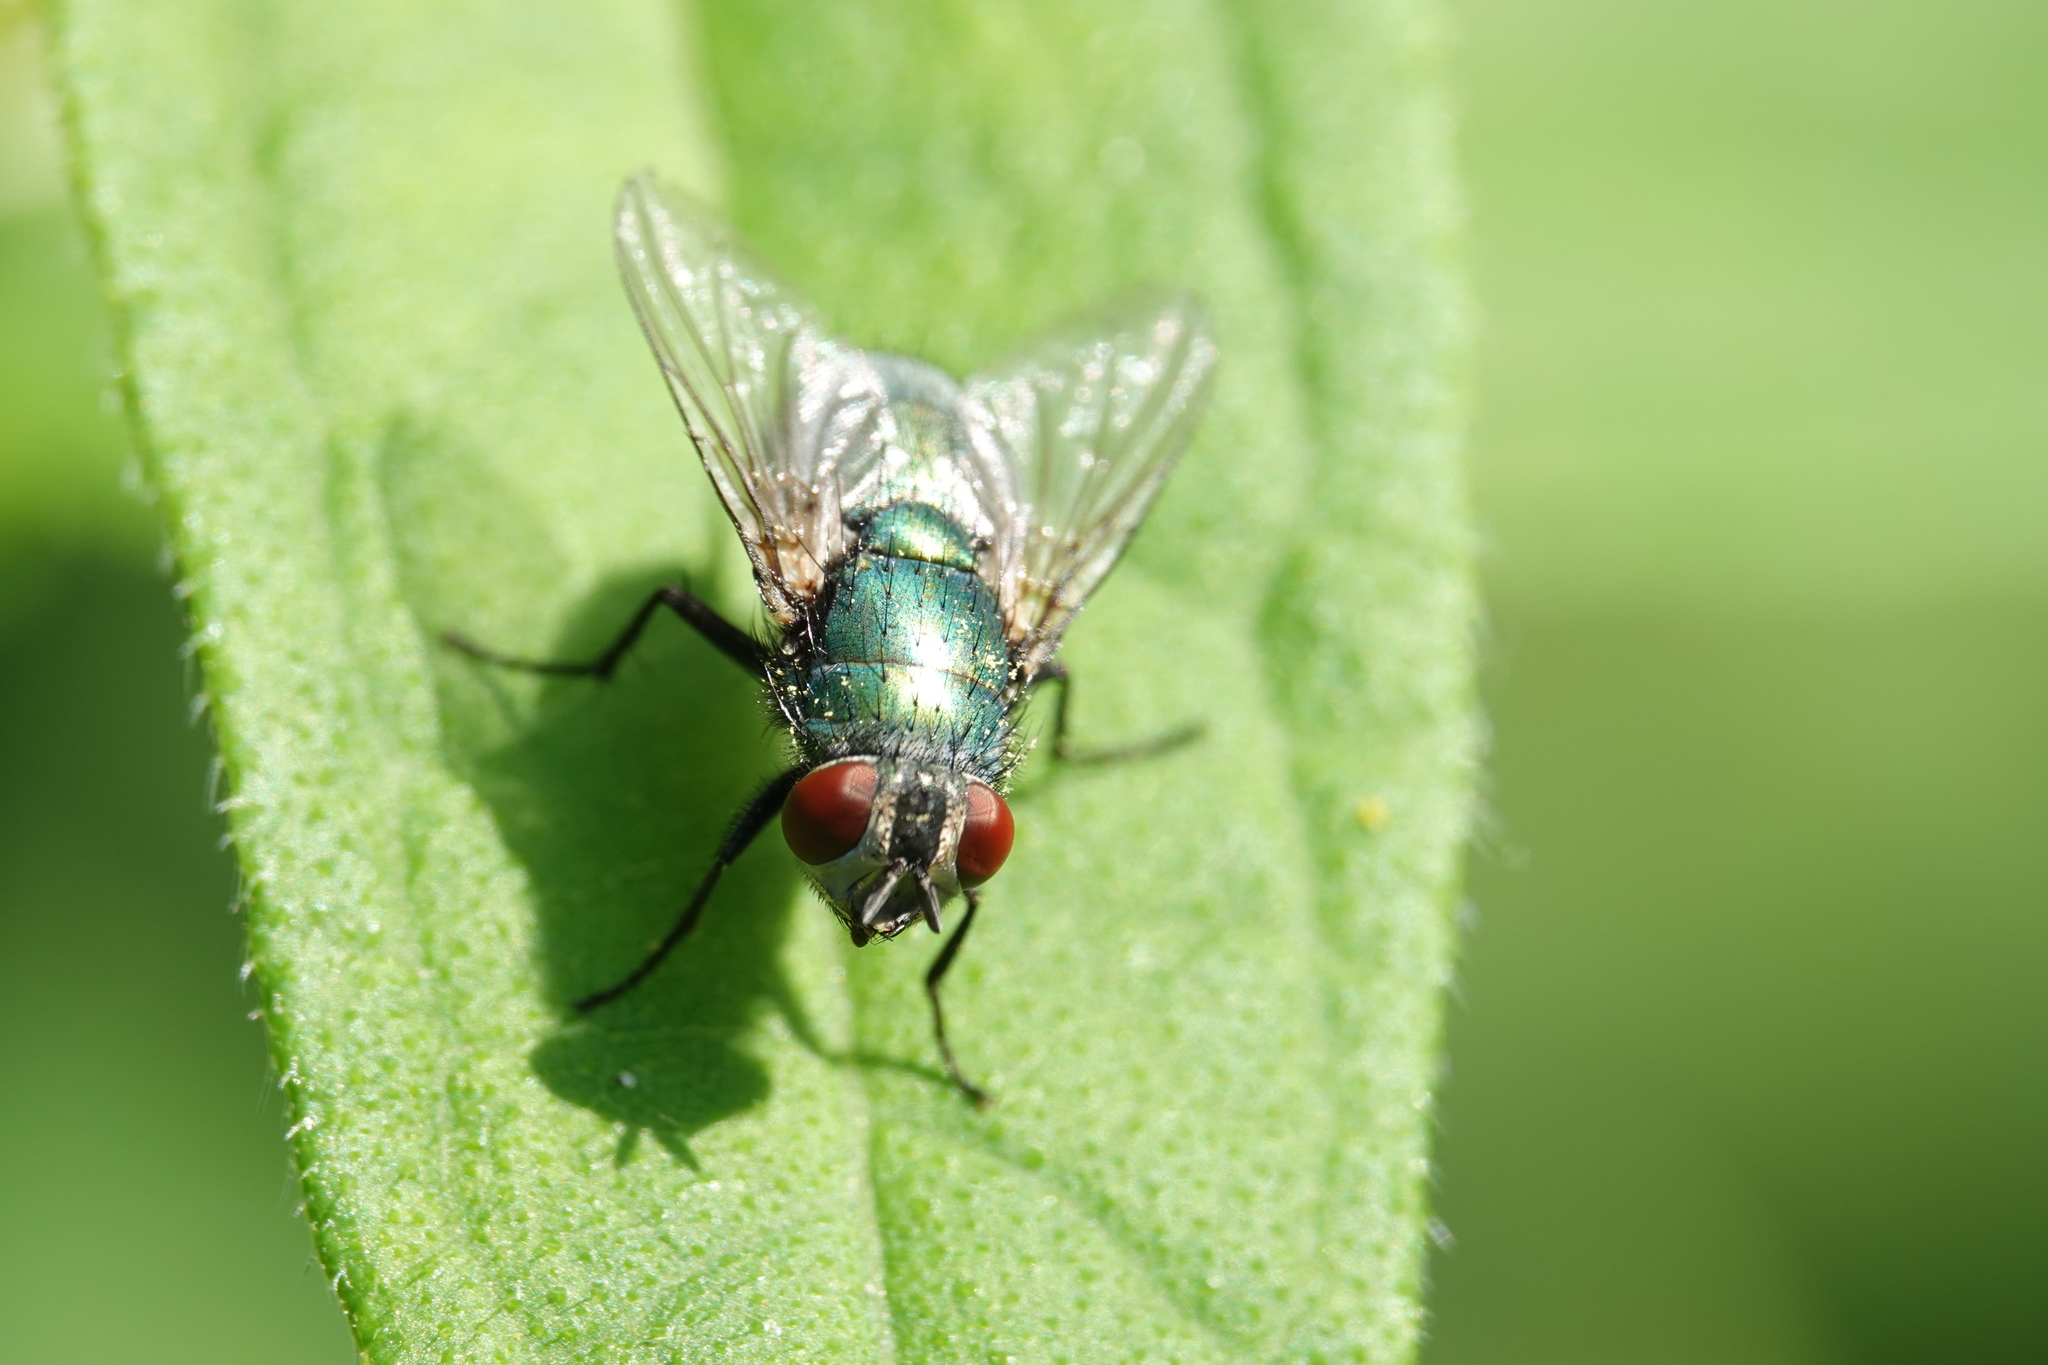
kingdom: Animalia
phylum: Arthropoda
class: Insecta
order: Diptera
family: Calliphoridae
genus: Lucilia
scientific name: Lucilia sericata
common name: Blow fly
